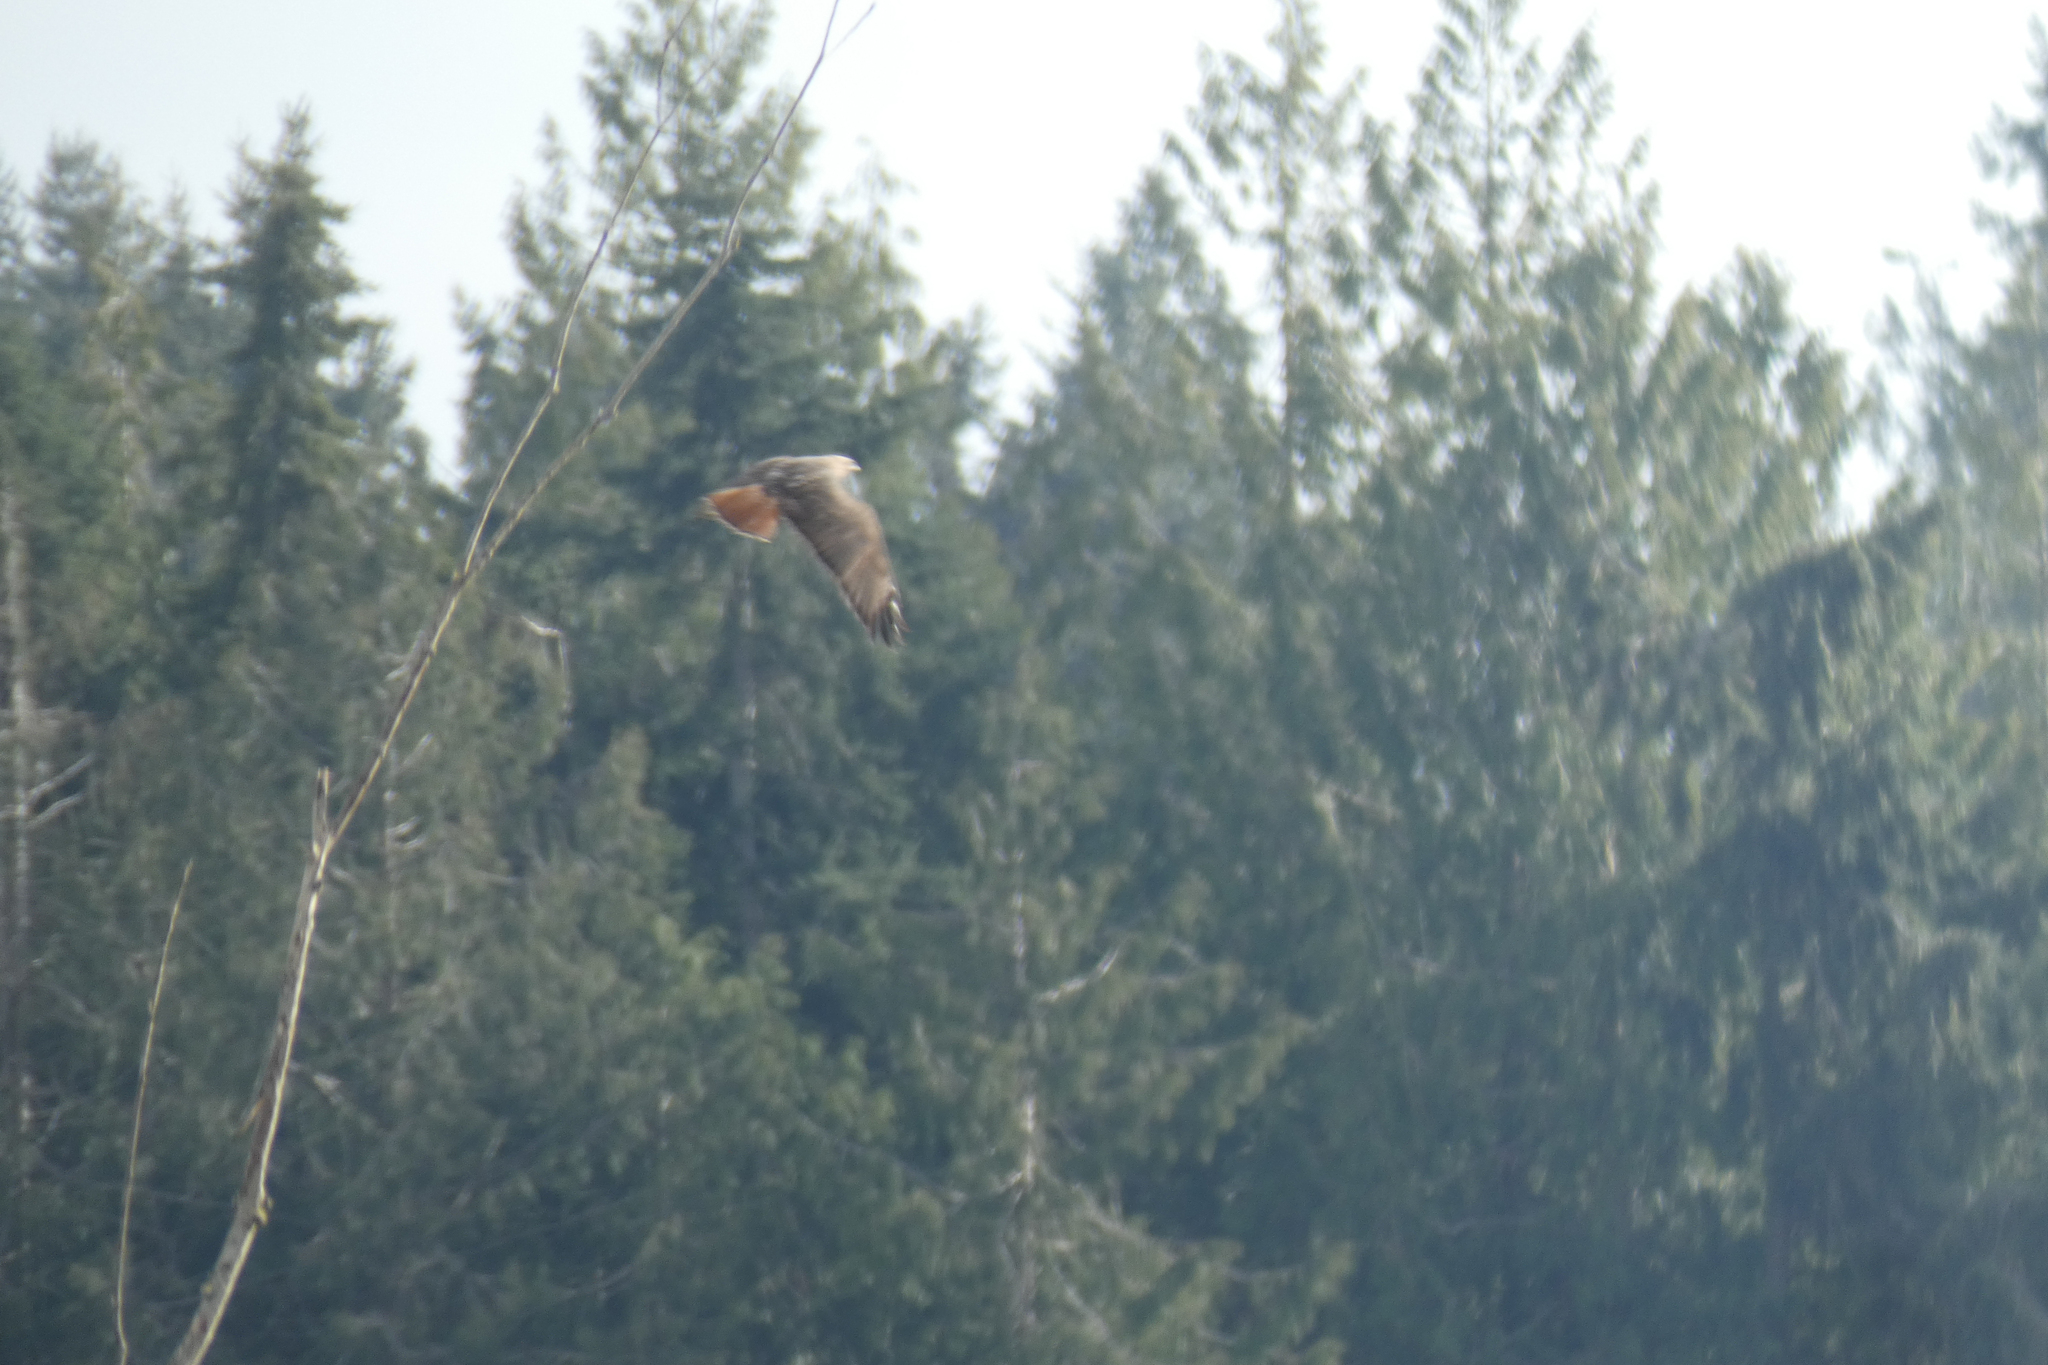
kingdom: Animalia
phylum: Chordata
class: Aves
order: Accipitriformes
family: Accipitridae
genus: Buteo
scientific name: Buteo jamaicensis
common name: Red-tailed hawk
